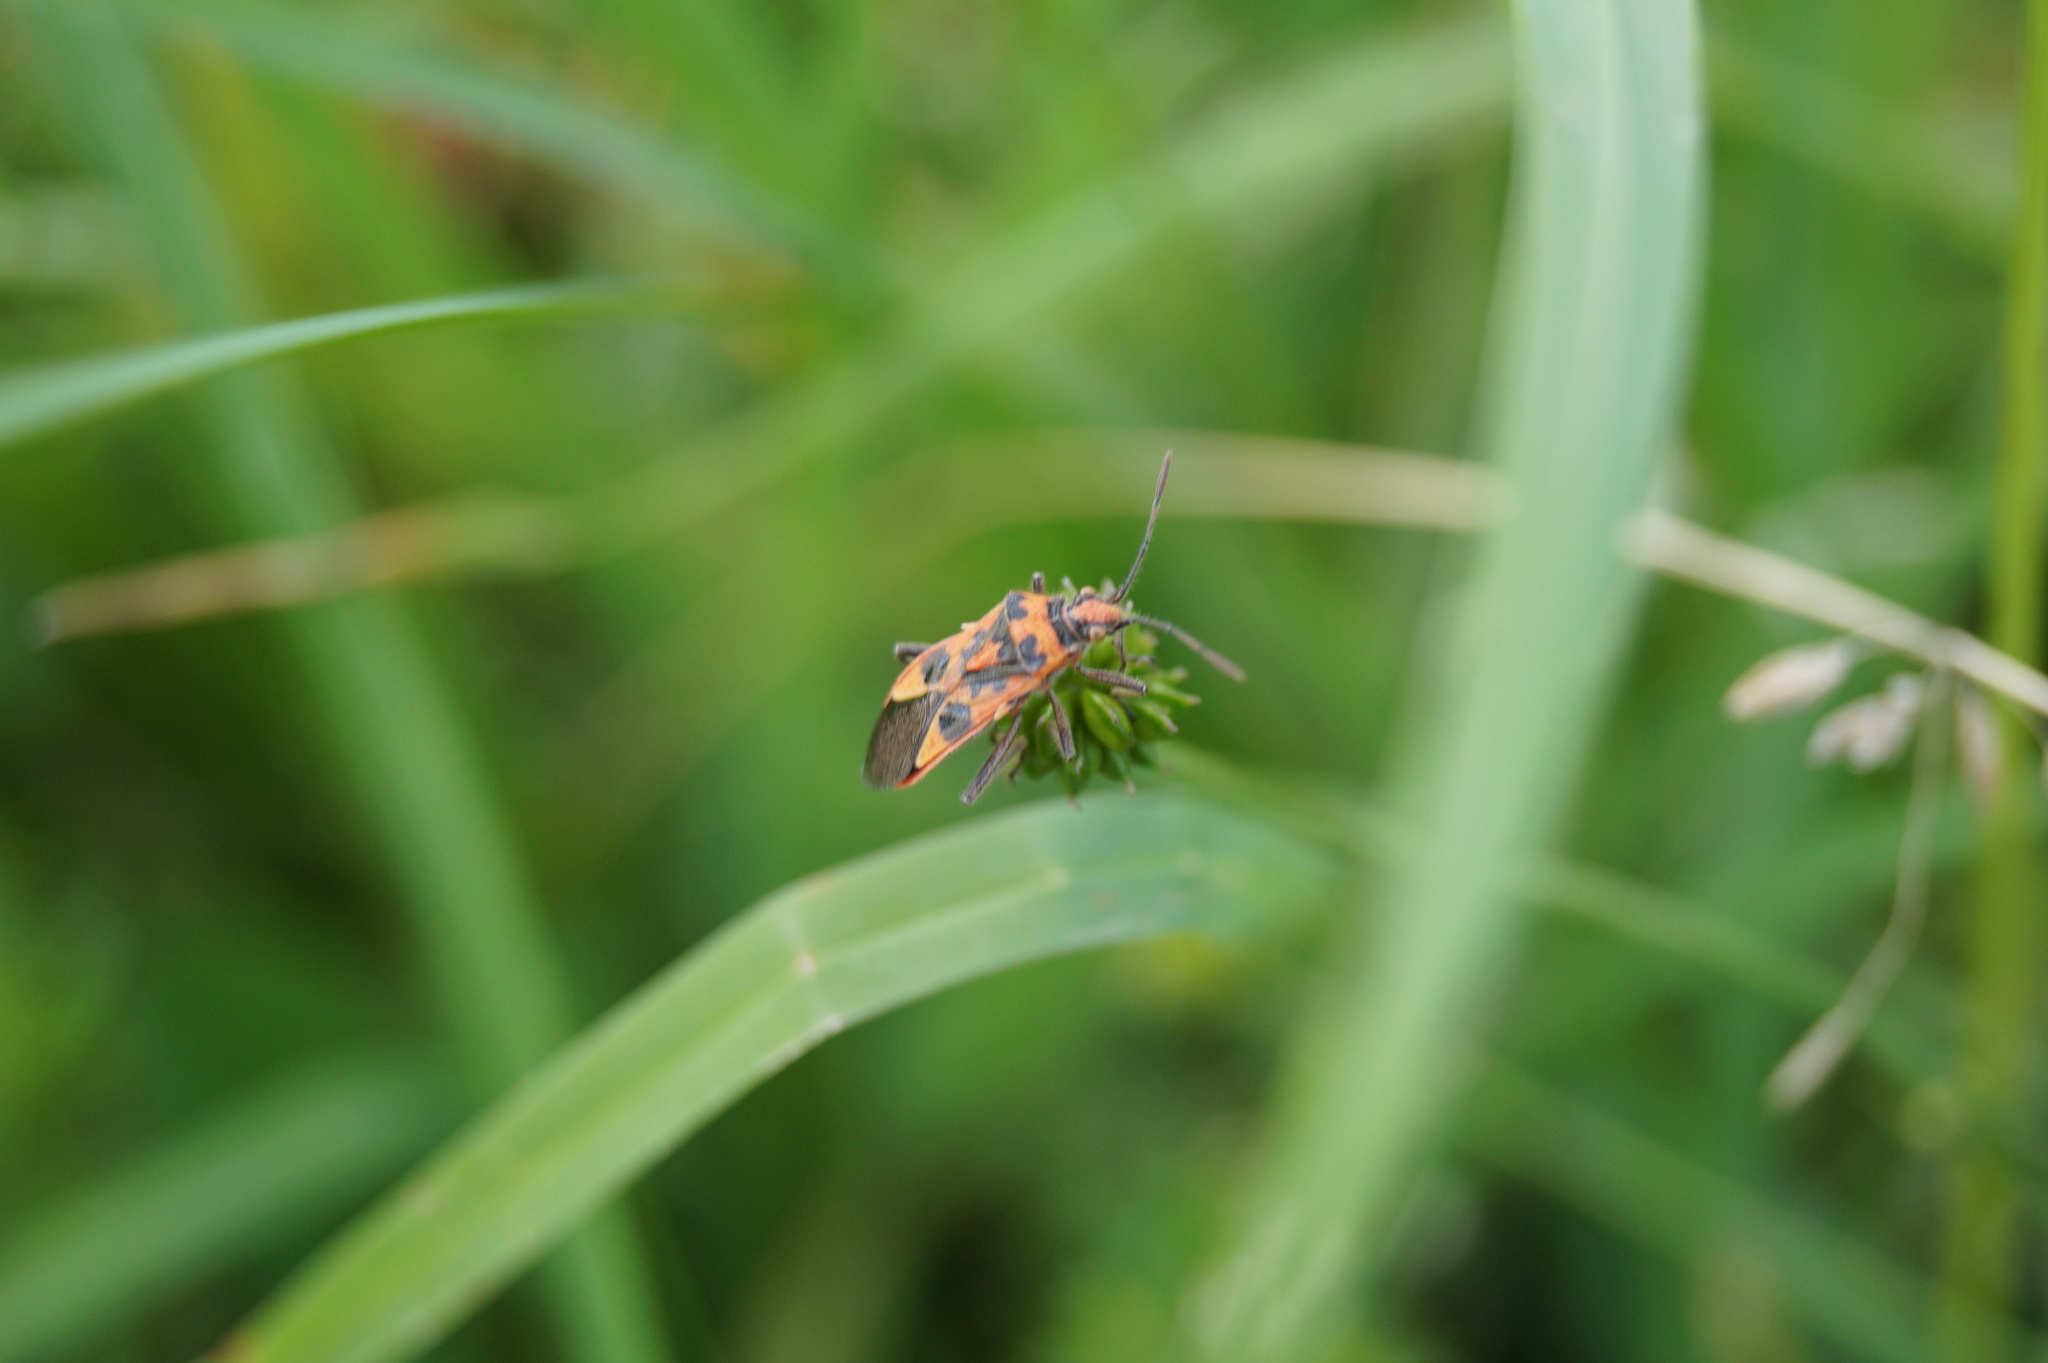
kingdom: Animalia
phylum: Arthropoda
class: Insecta
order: Hemiptera
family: Rhopalidae
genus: Corizus
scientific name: Corizus hyoscyami
